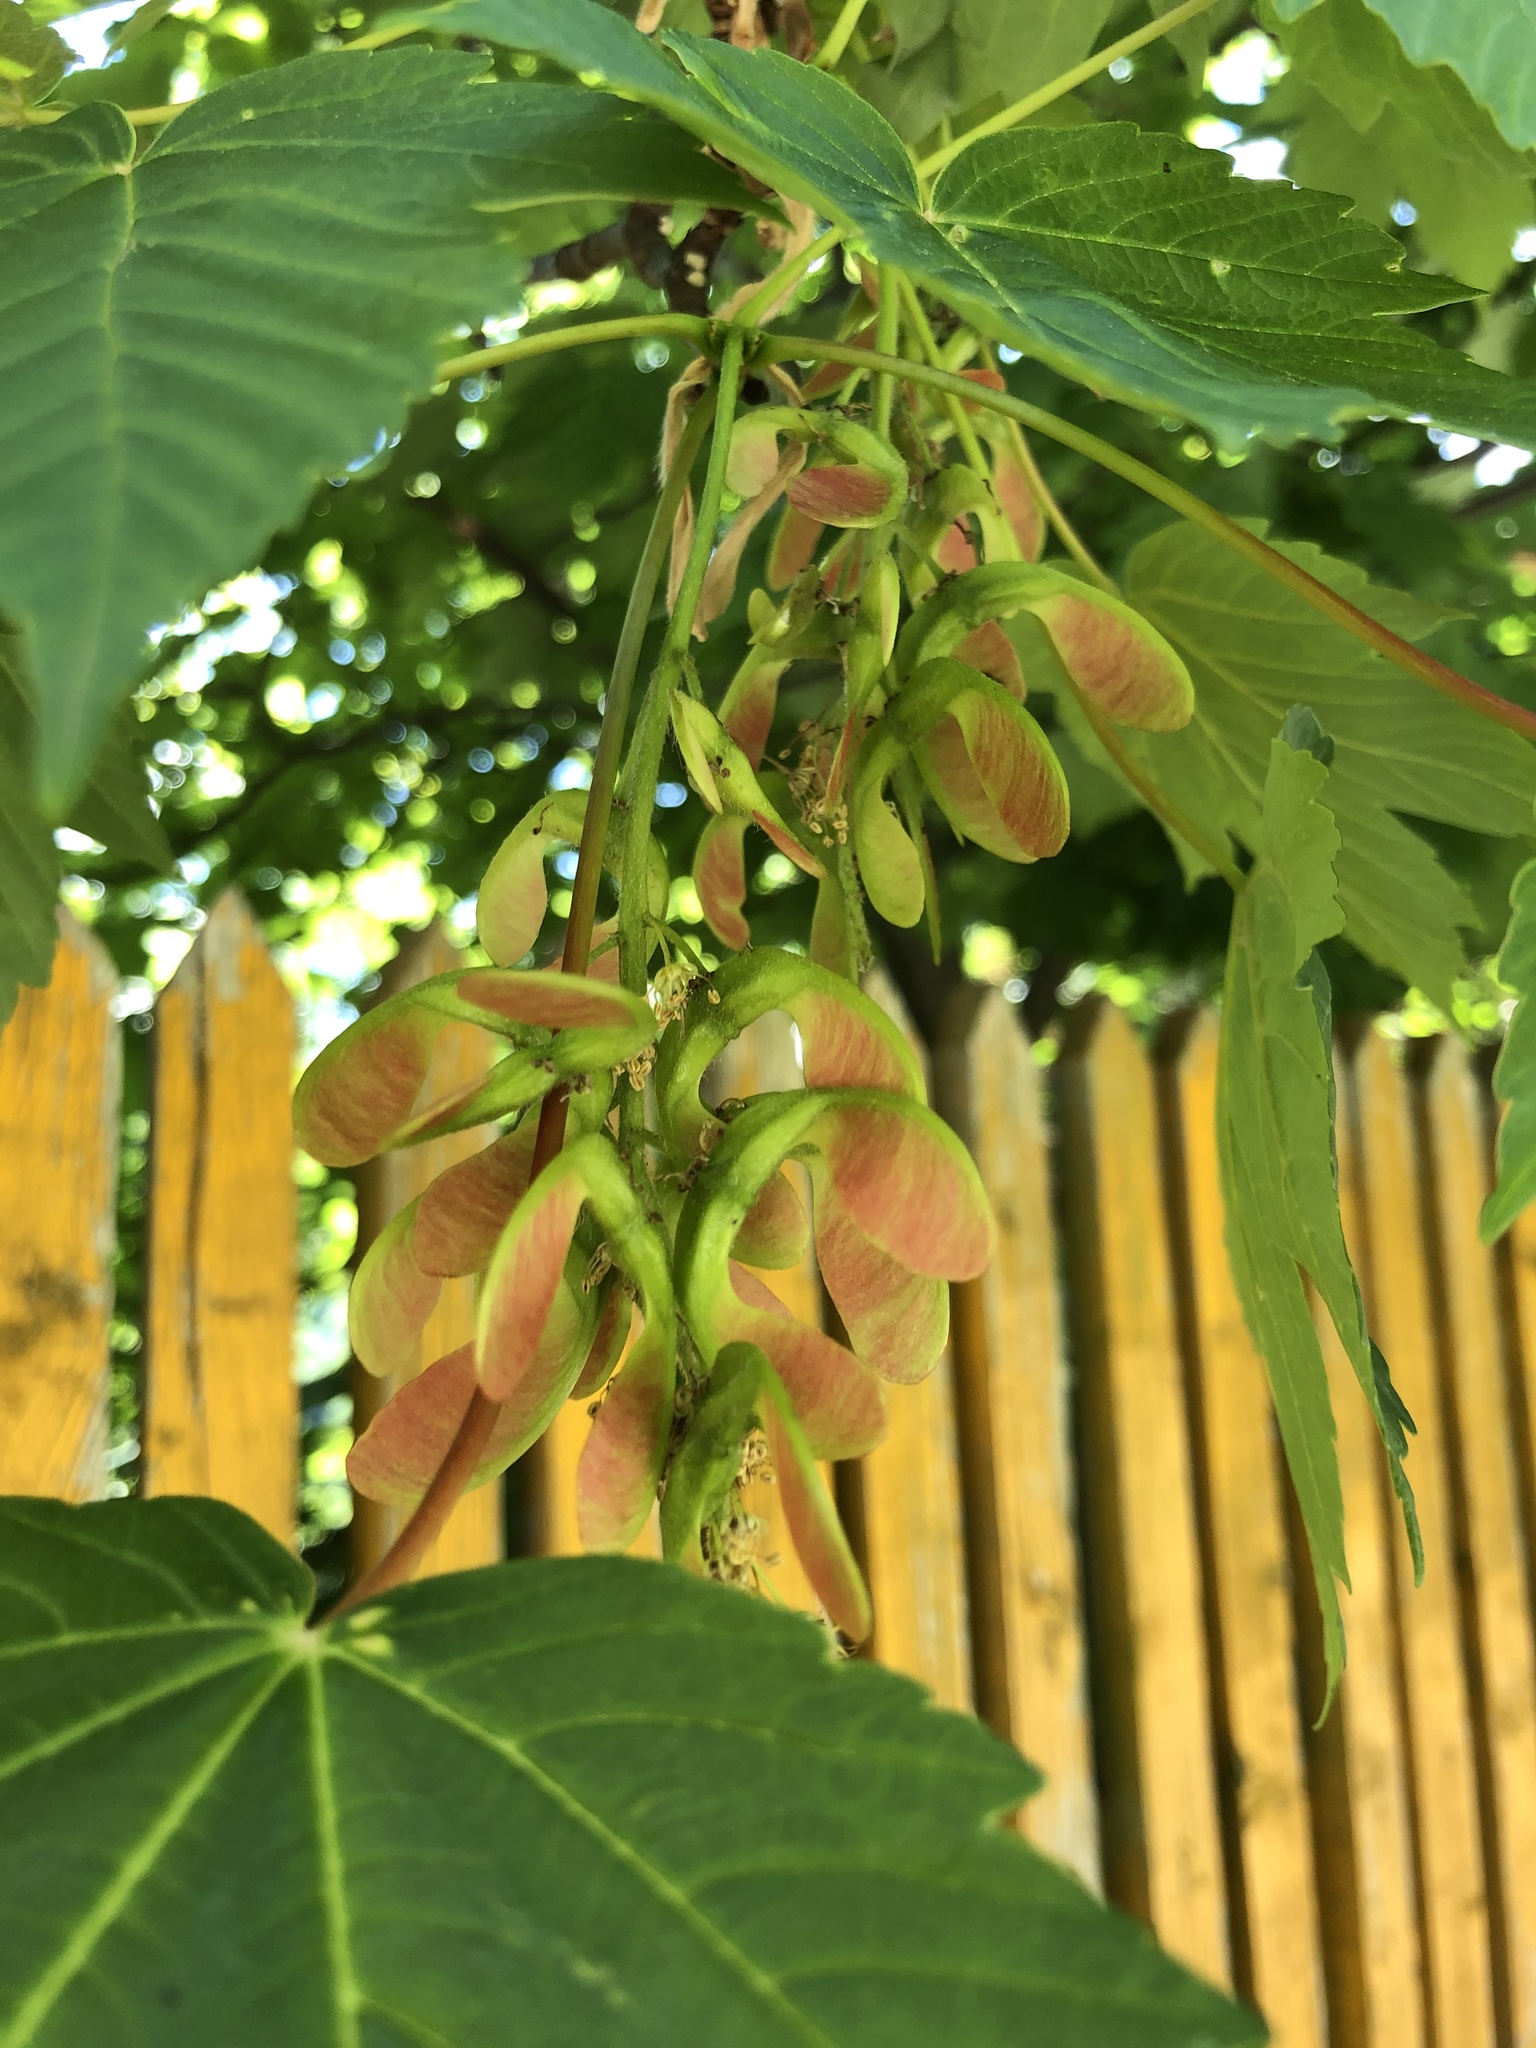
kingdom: Plantae
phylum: Tracheophyta
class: Magnoliopsida
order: Sapindales
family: Sapindaceae
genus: Acer
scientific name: Acer pseudoplatanus
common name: Sycamore
